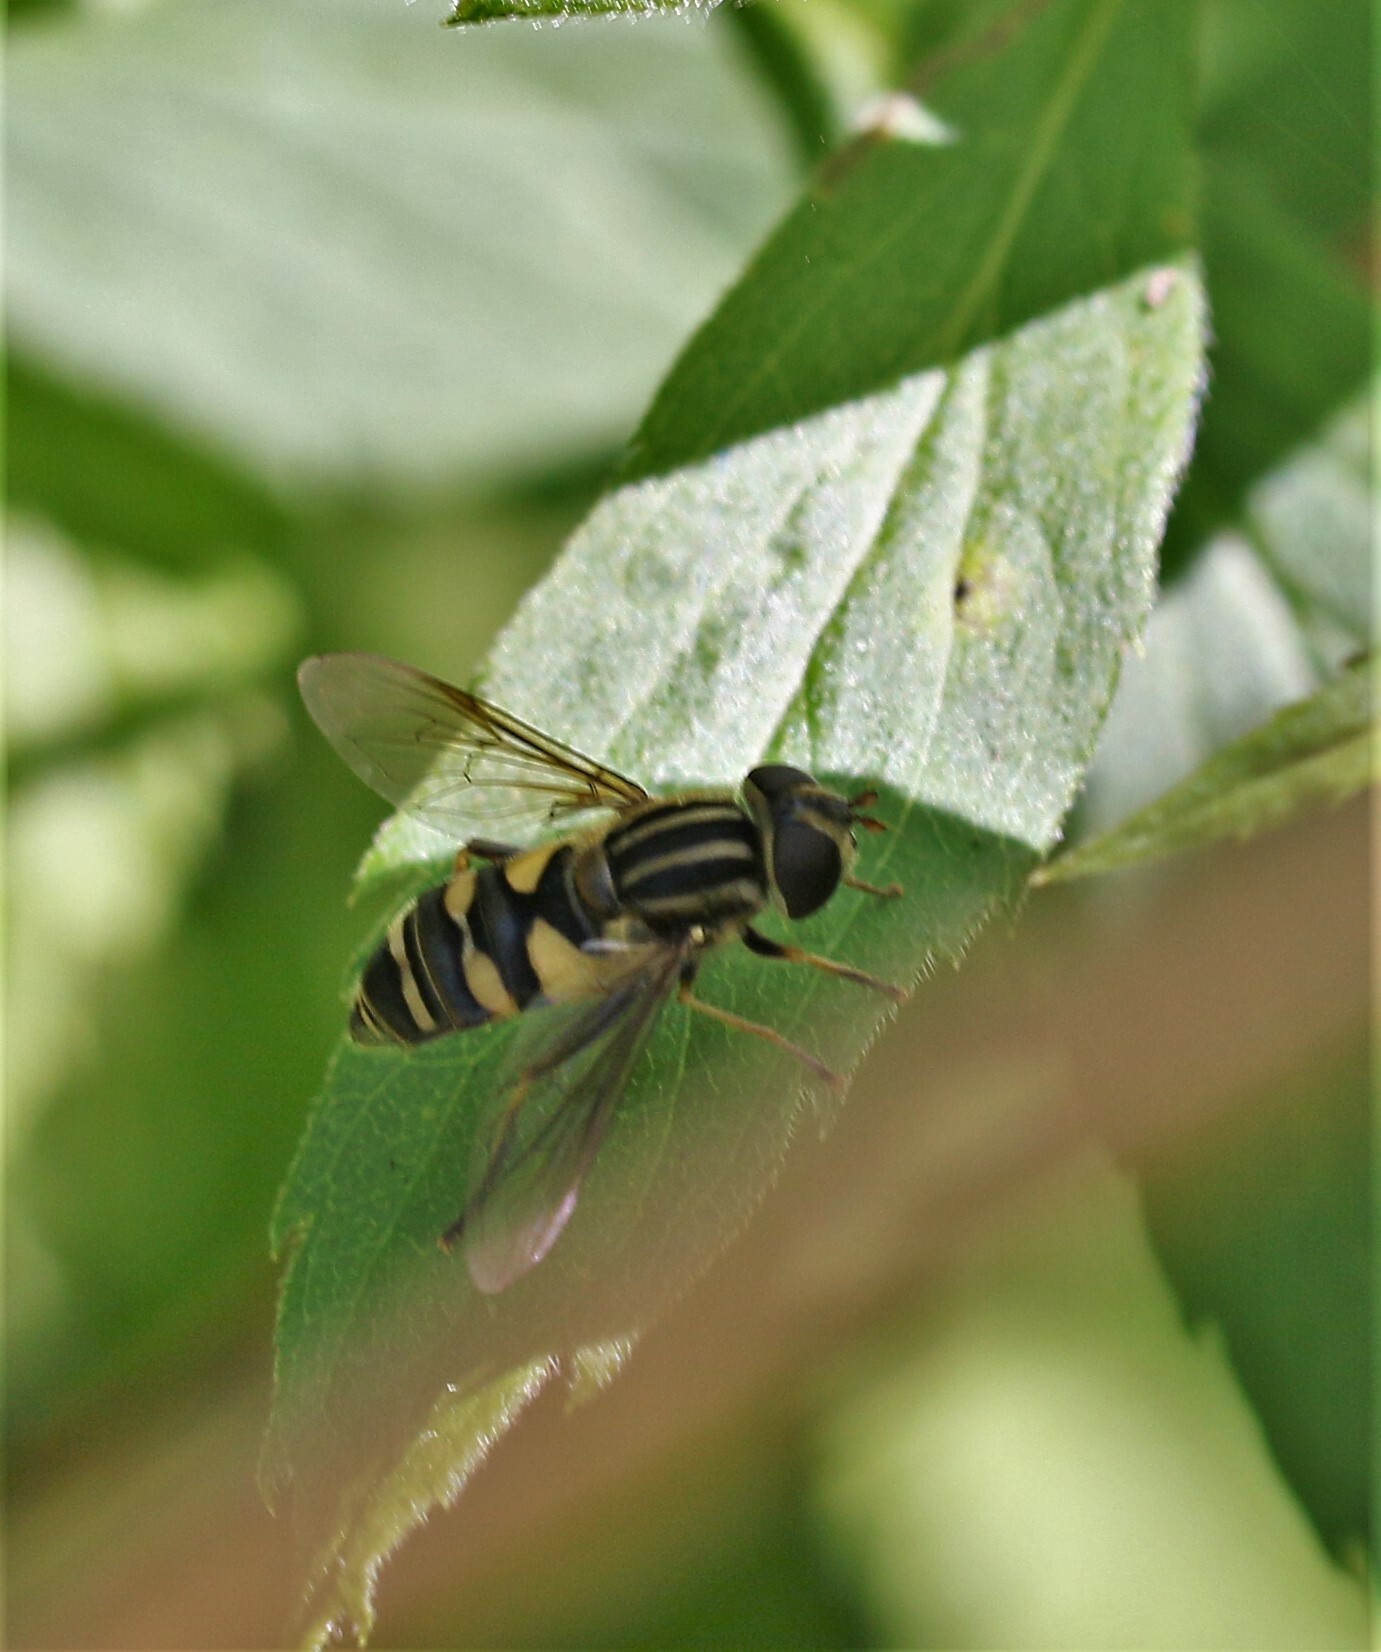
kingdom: Animalia
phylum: Arthropoda
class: Insecta
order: Diptera
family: Syrphidae
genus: Helophilus
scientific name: Helophilus fasciatus
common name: Narrow-headed marsh fly
